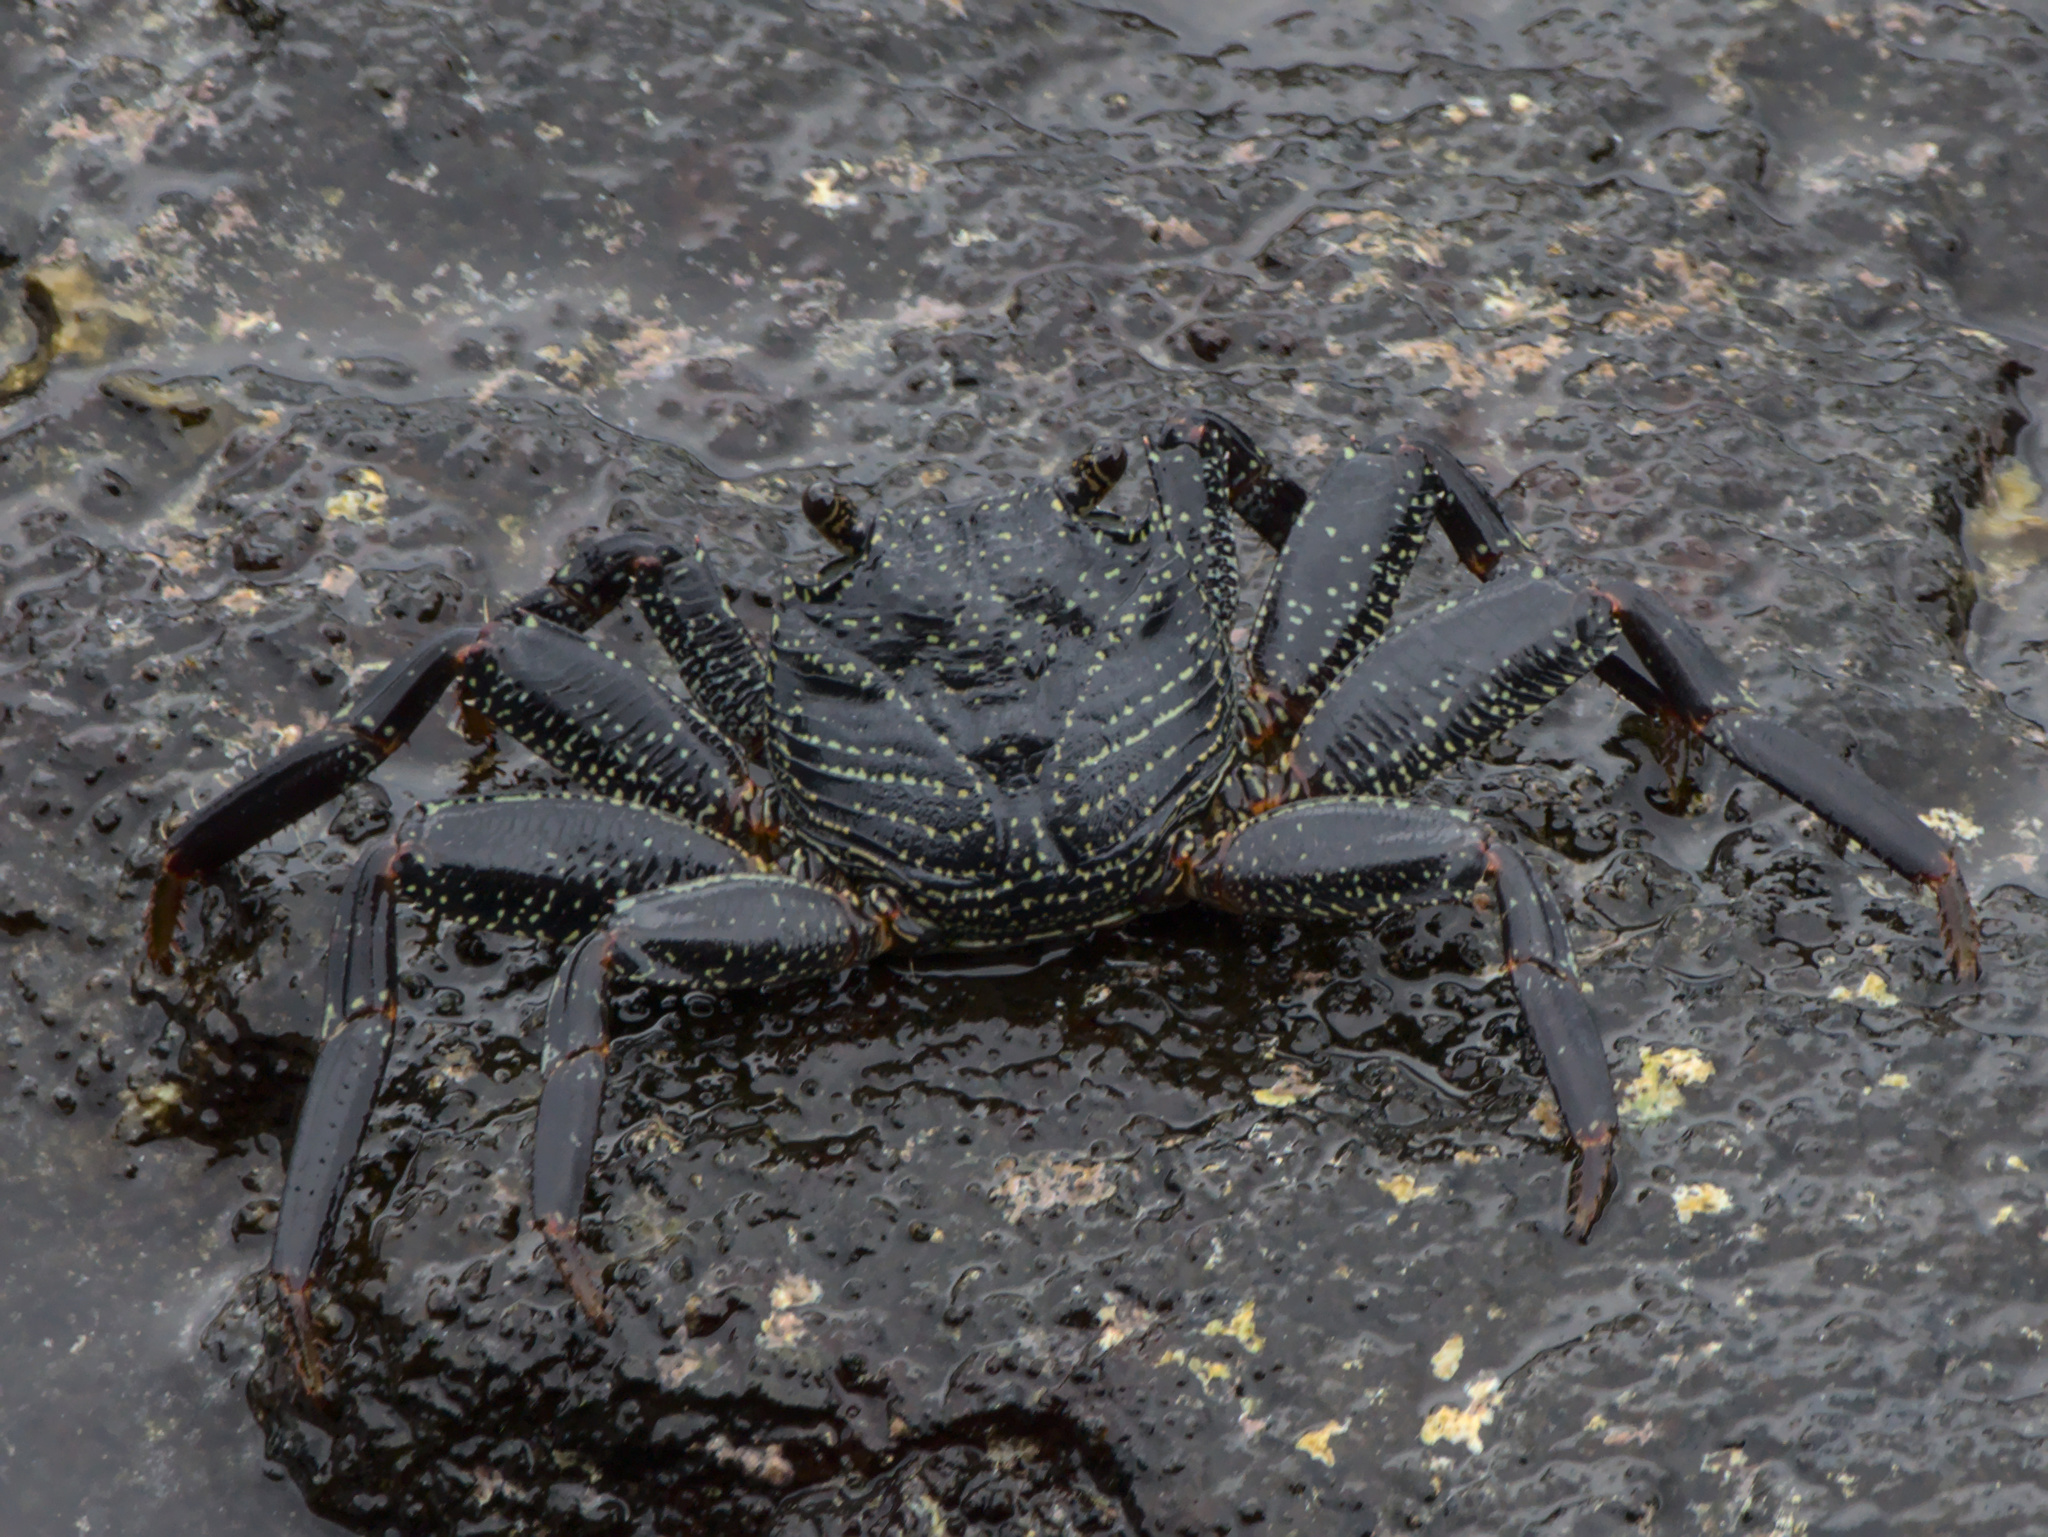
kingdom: Animalia
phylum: Arthropoda
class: Malacostraca
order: Decapoda
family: Grapsidae
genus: Grapsus
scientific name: Grapsus tenuicrustatus
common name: Natal lightfoot crab
